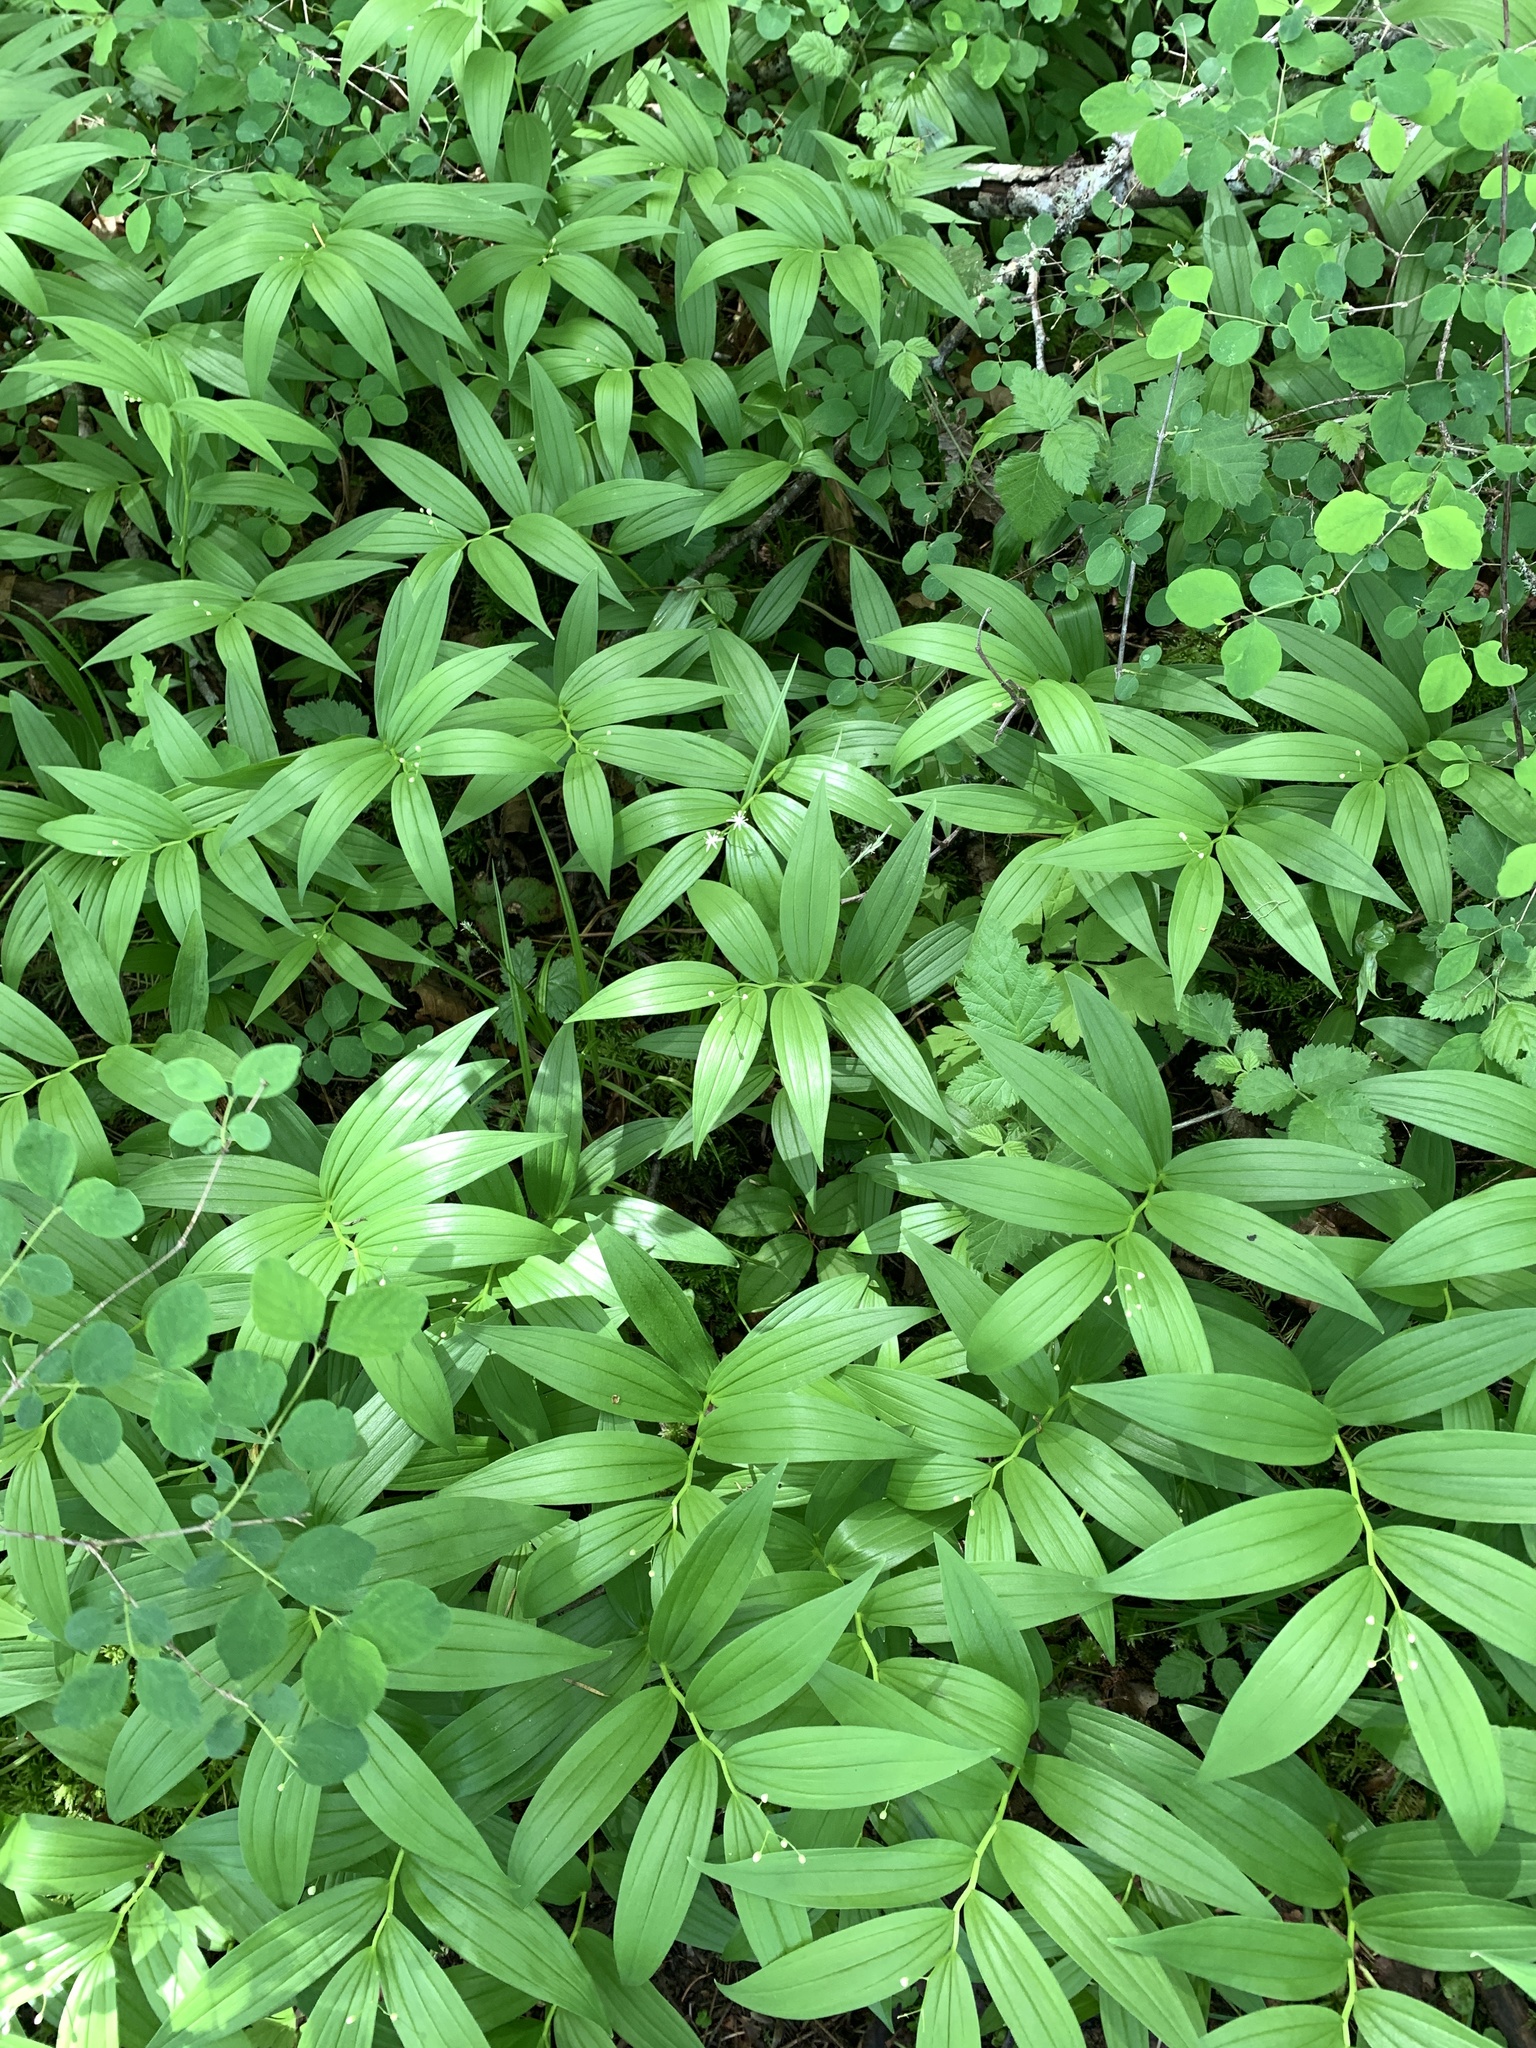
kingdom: Plantae
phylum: Tracheophyta
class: Liliopsida
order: Asparagales
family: Asparagaceae
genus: Maianthemum
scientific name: Maianthemum stellatum
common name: Little false solomon's seal
